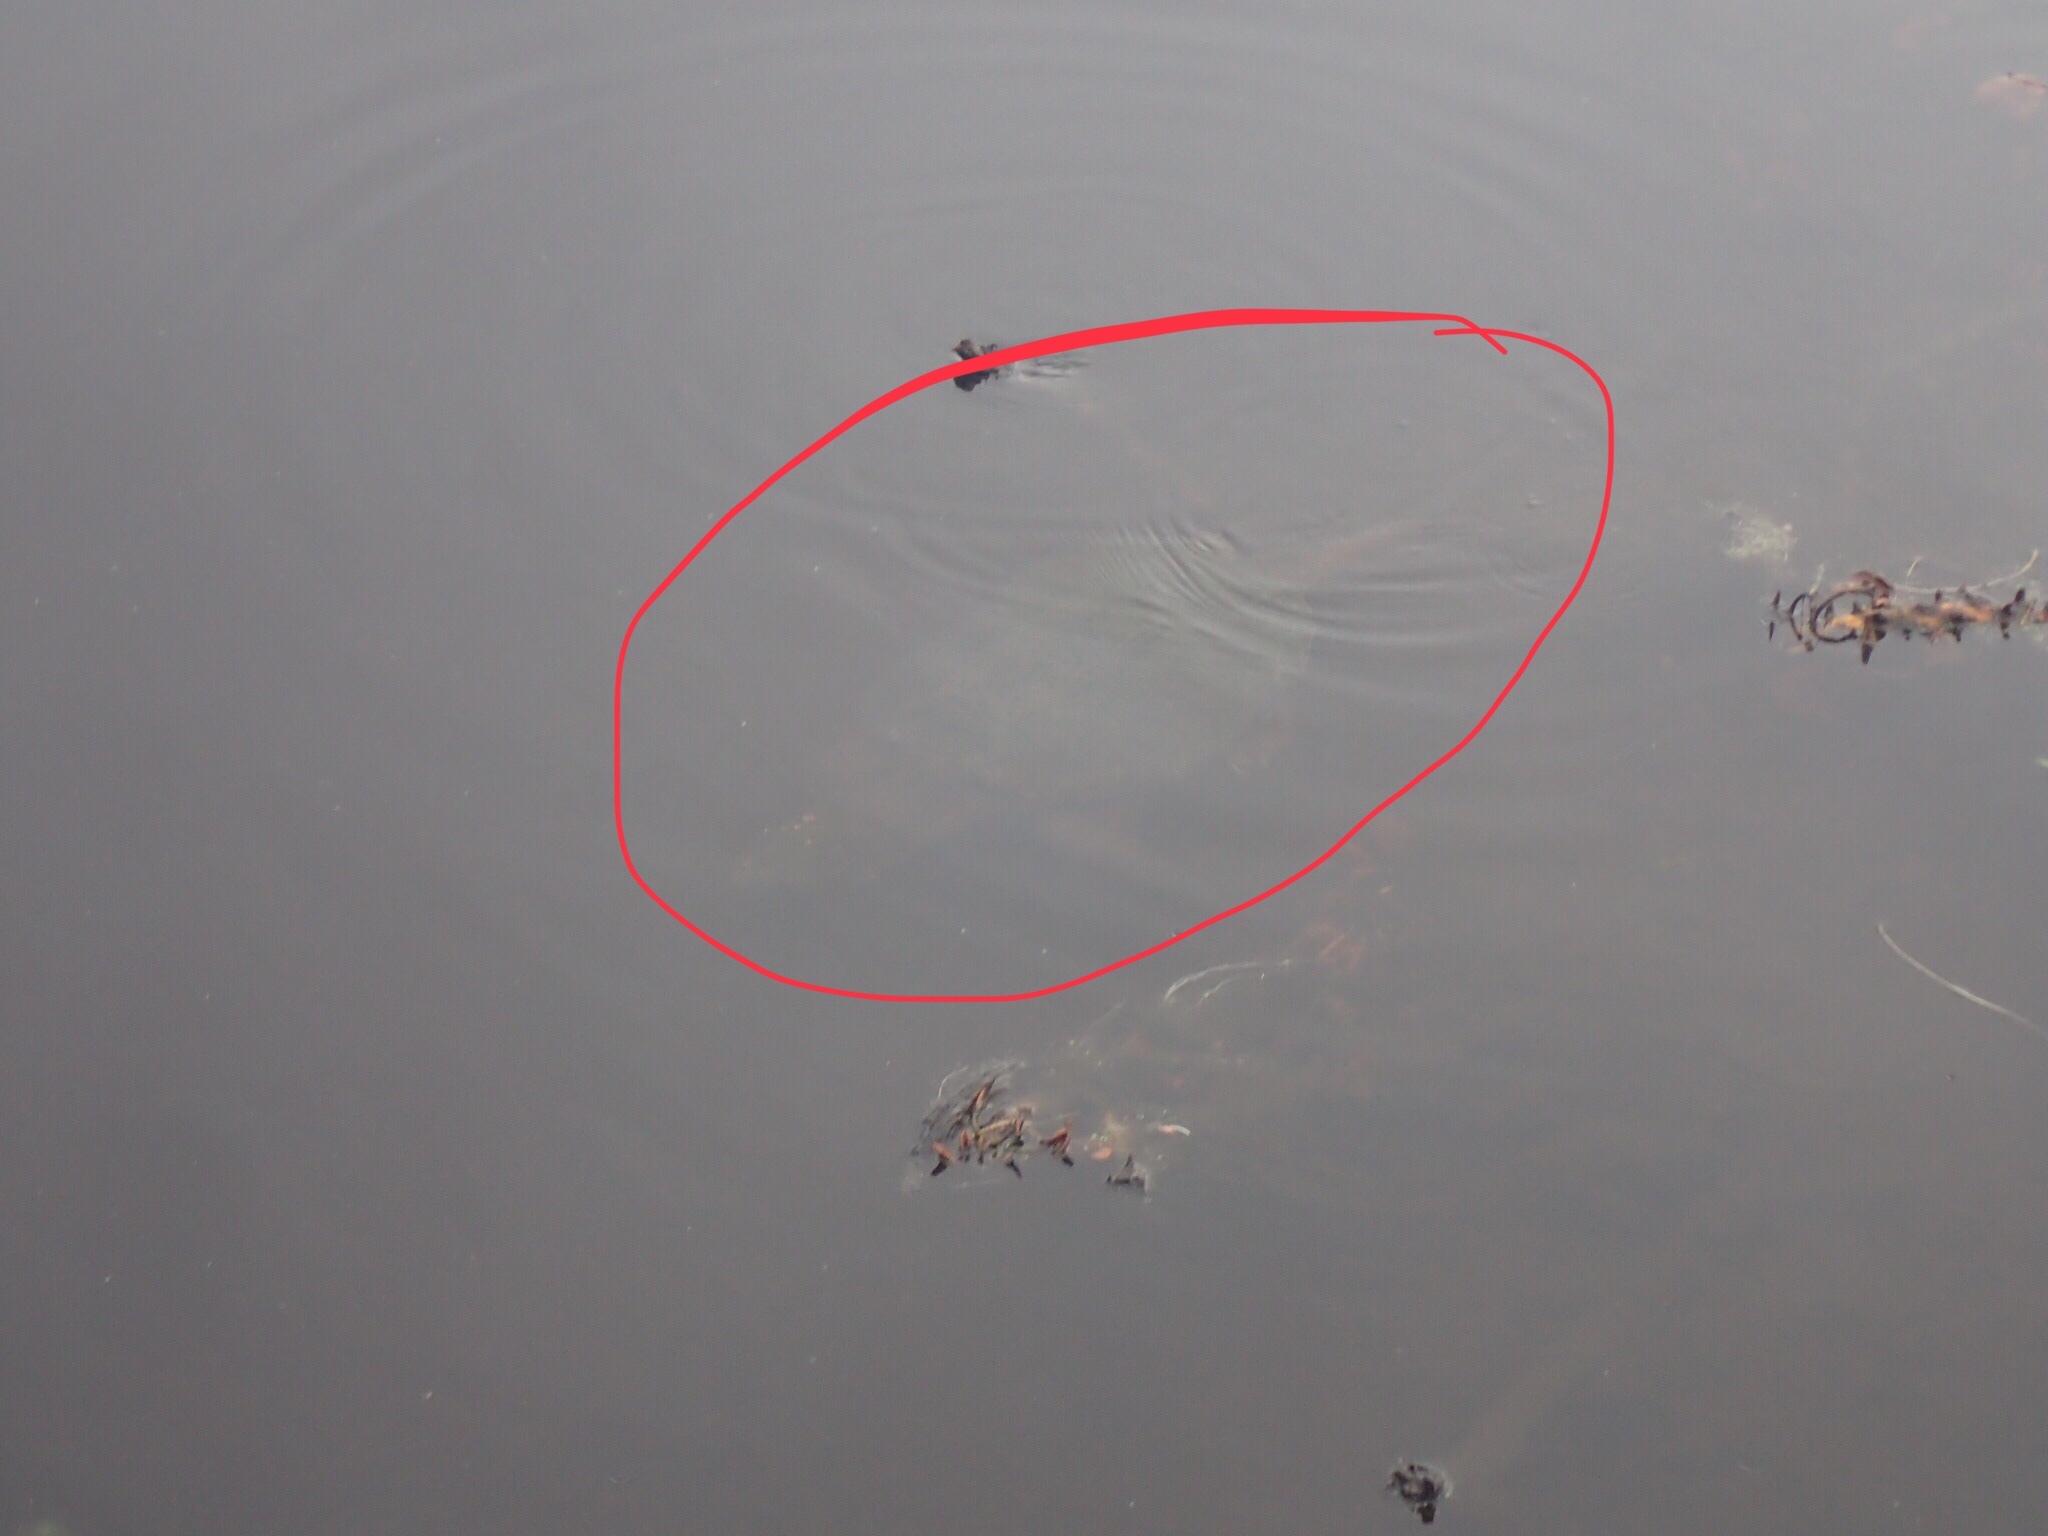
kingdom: Animalia
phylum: Chordata
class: Testudines
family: Chelydridae
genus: Chelydra
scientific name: Chelydra serpentina
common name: Common snapping turtle
